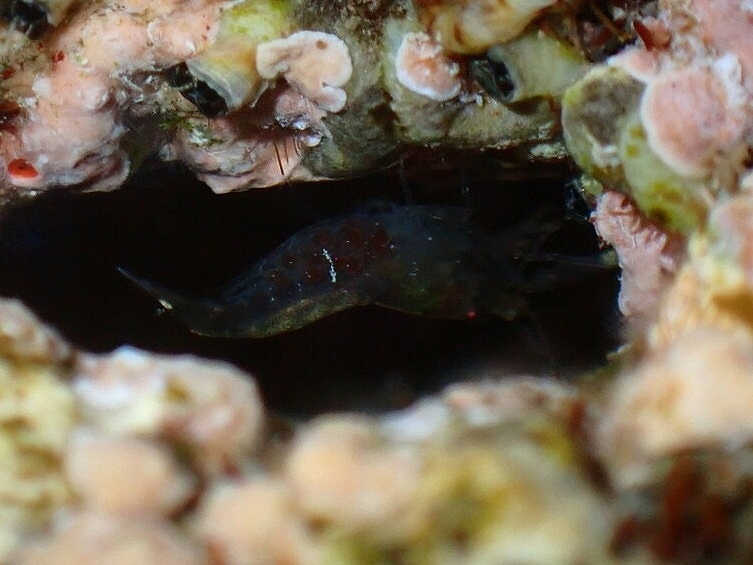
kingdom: Animalia
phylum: Arthropoda
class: Malacostraca
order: Decapoda
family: Alpheidae
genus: Athanas
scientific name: Athanas nitescens
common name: Hooded shrimp
